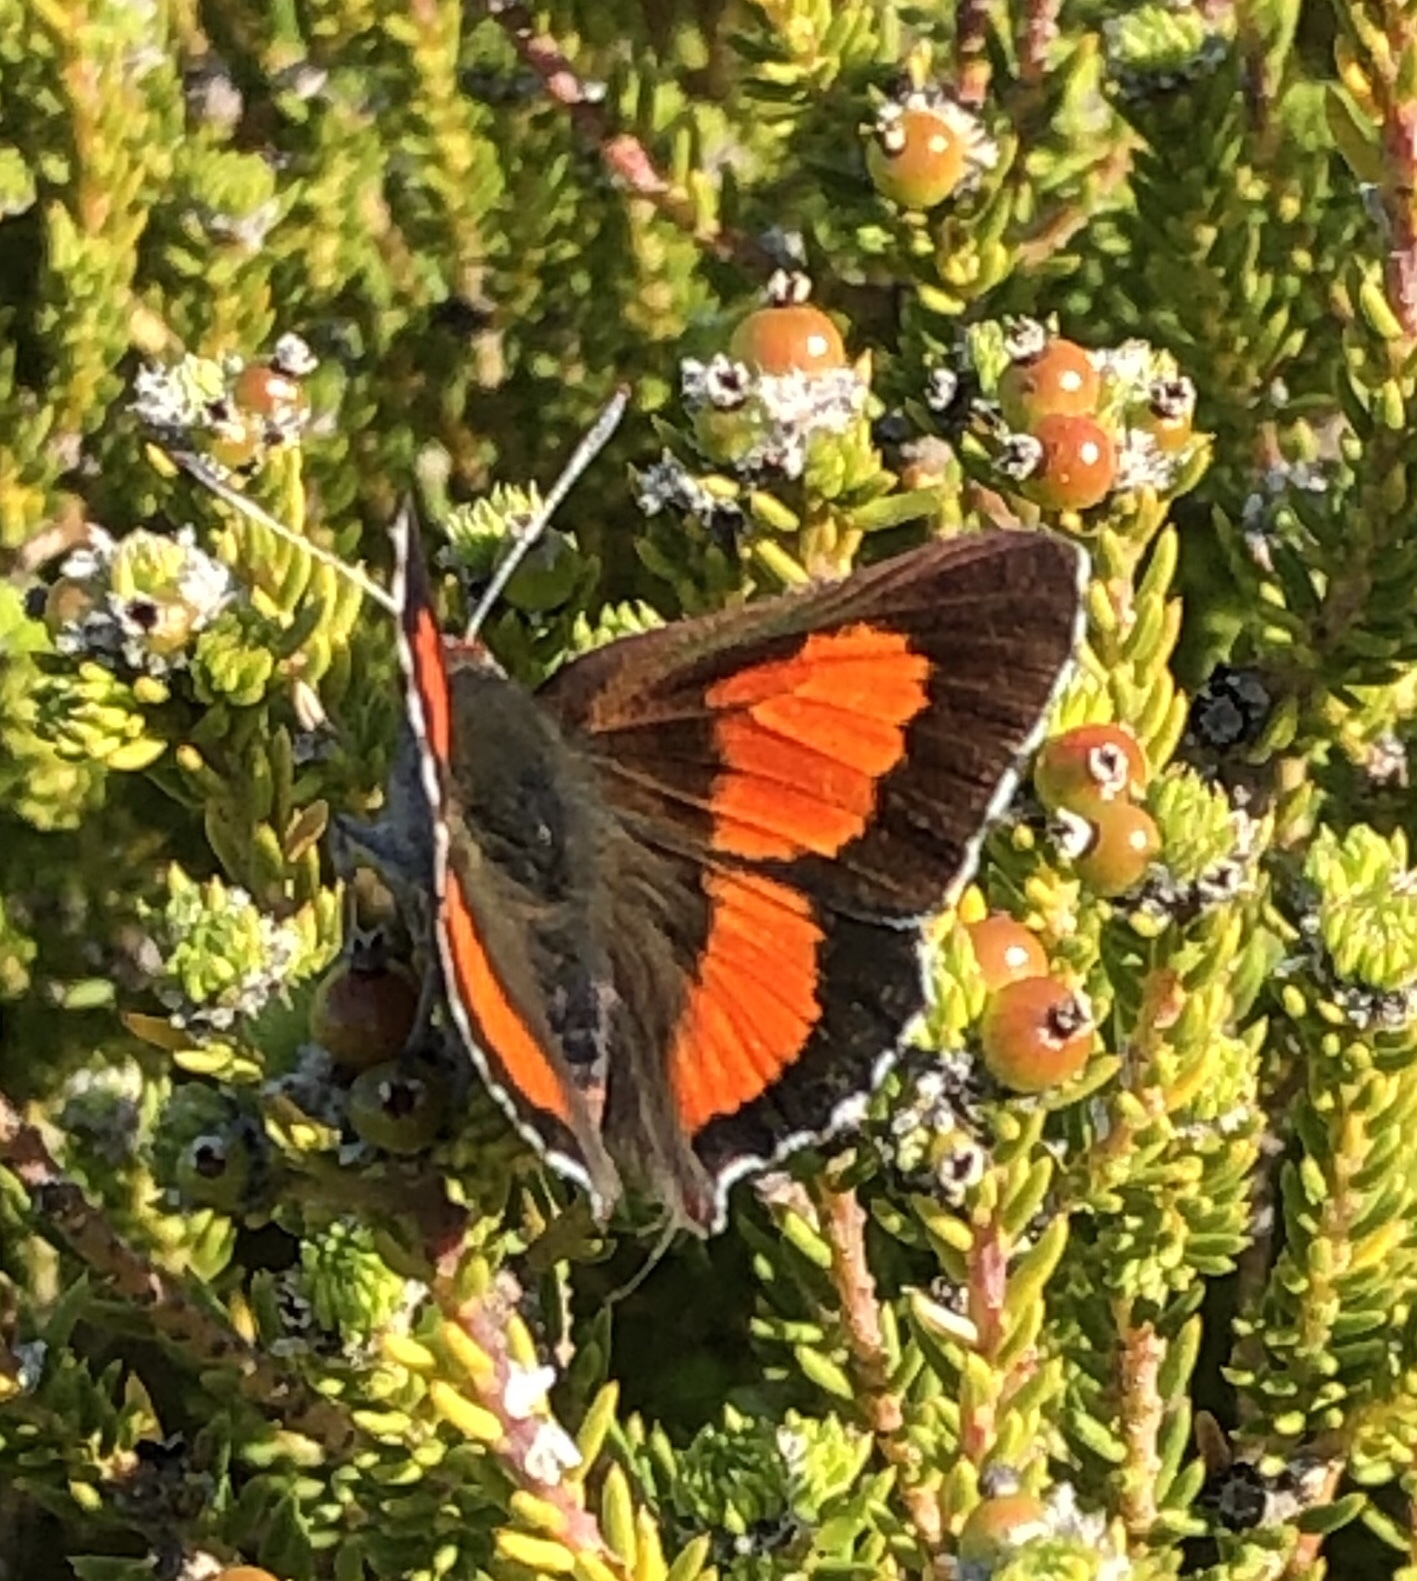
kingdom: Animalia
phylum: Arthropoda
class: Insecta
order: Lepidoptera
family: Lycaenidae
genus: Capys
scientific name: Capys alpheus
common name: Orange-banded protea butterfly
